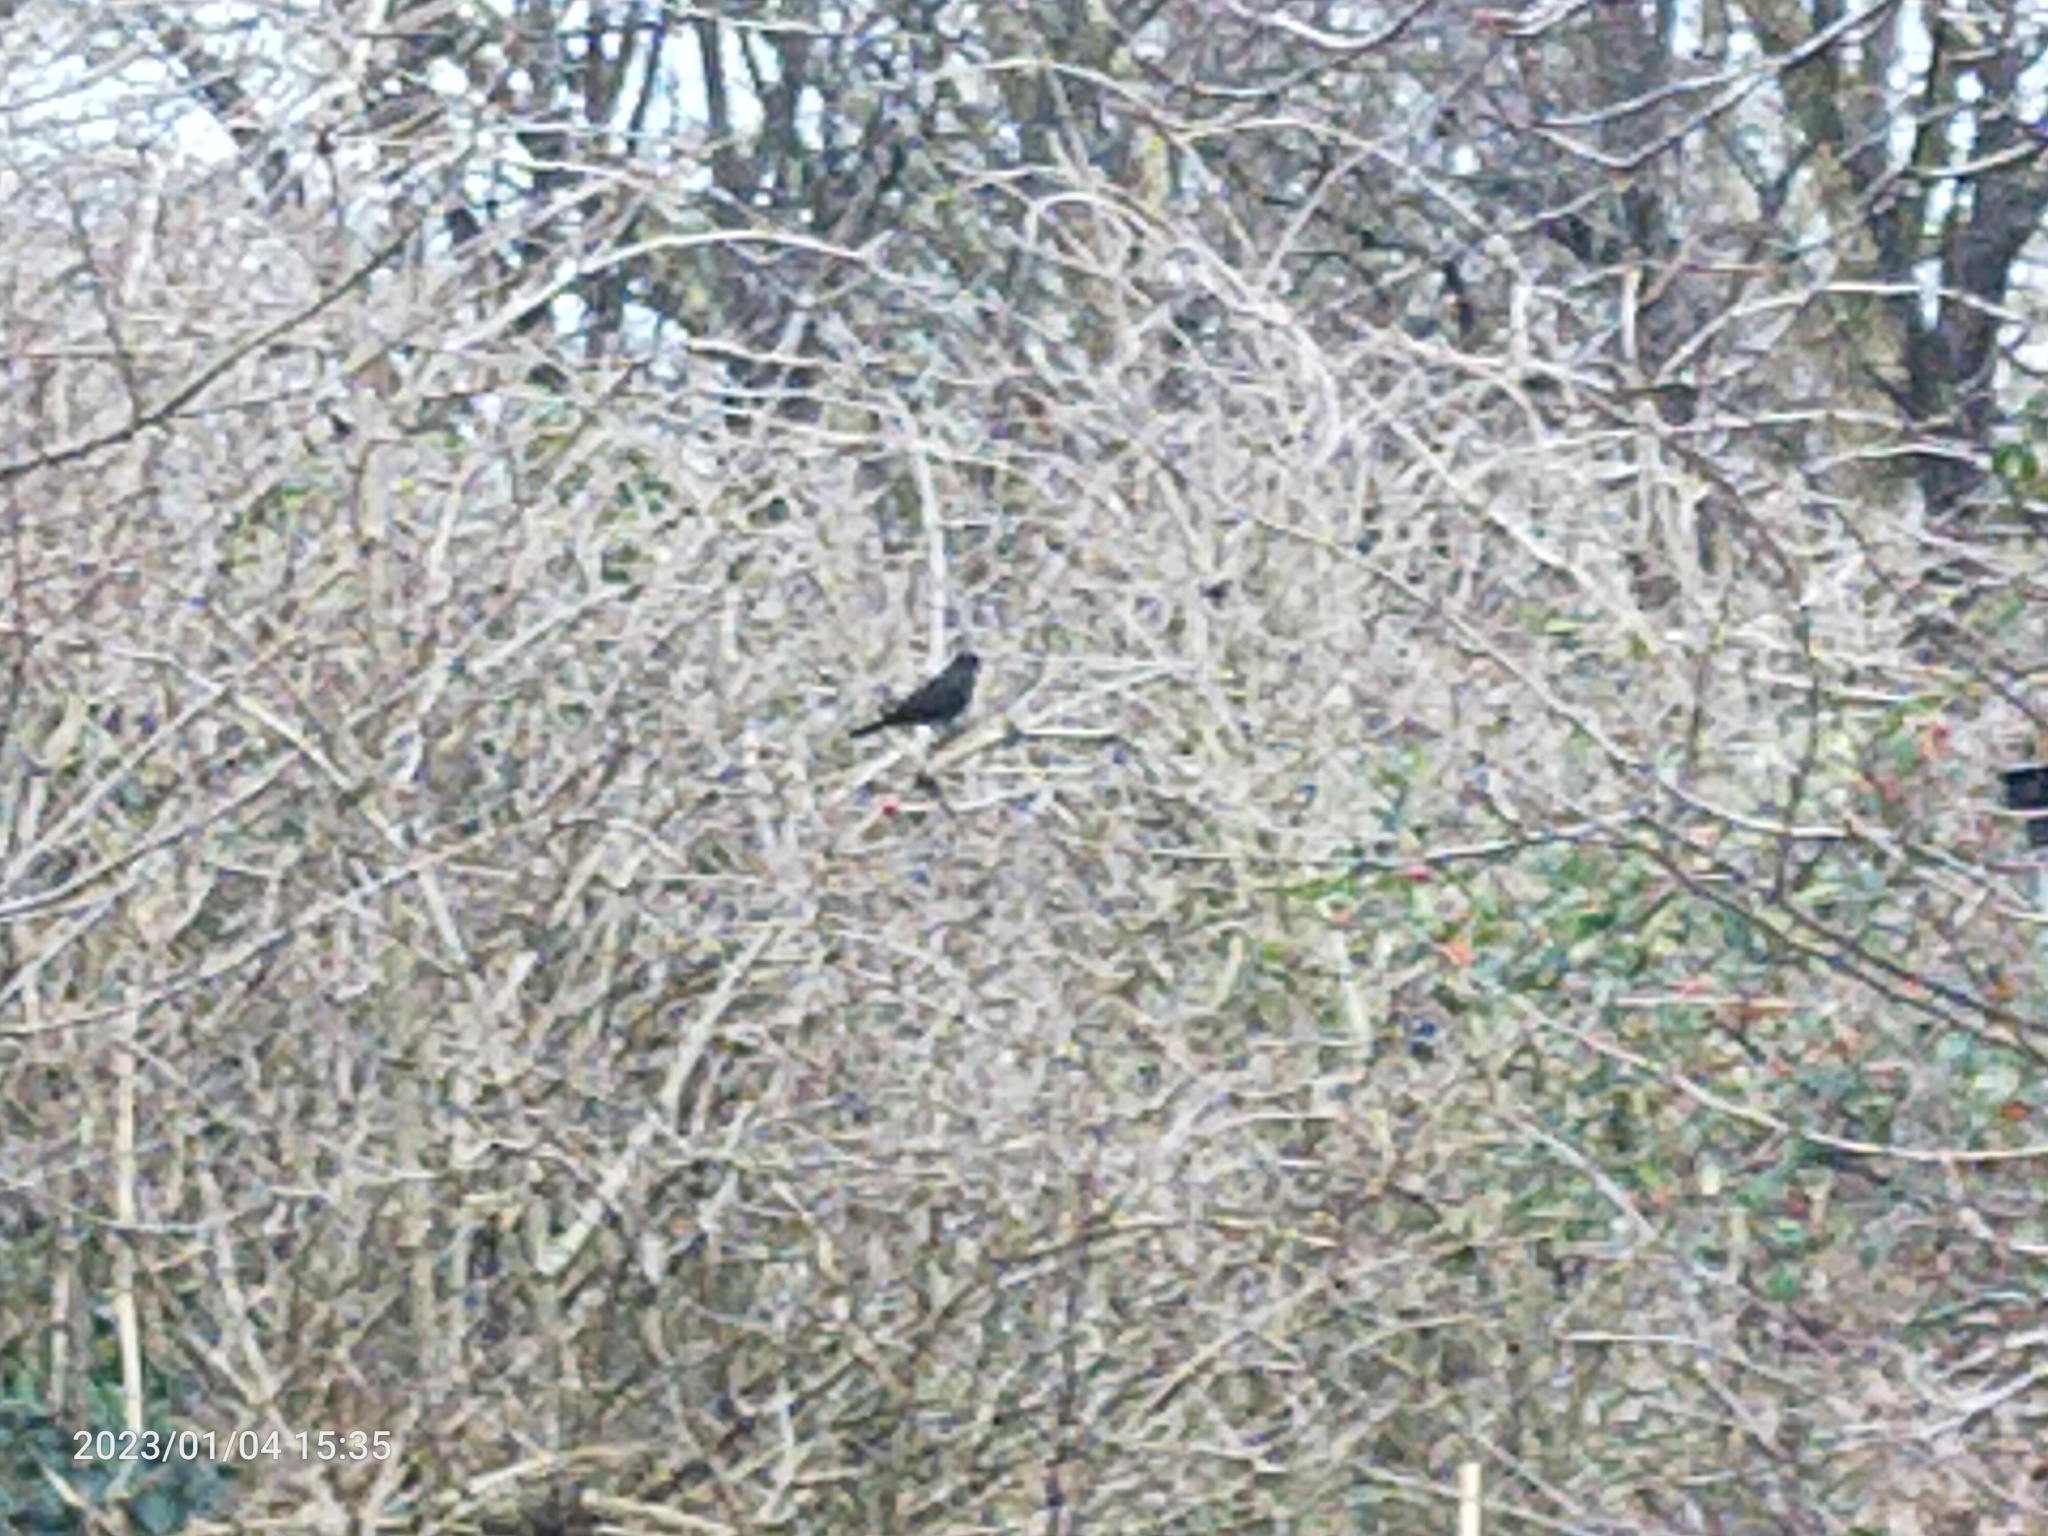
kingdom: Animalia
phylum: Chordata
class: Aves
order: Passeriformes
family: Turdidae
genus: Turdus
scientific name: Turdus merula
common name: Common blackbird
